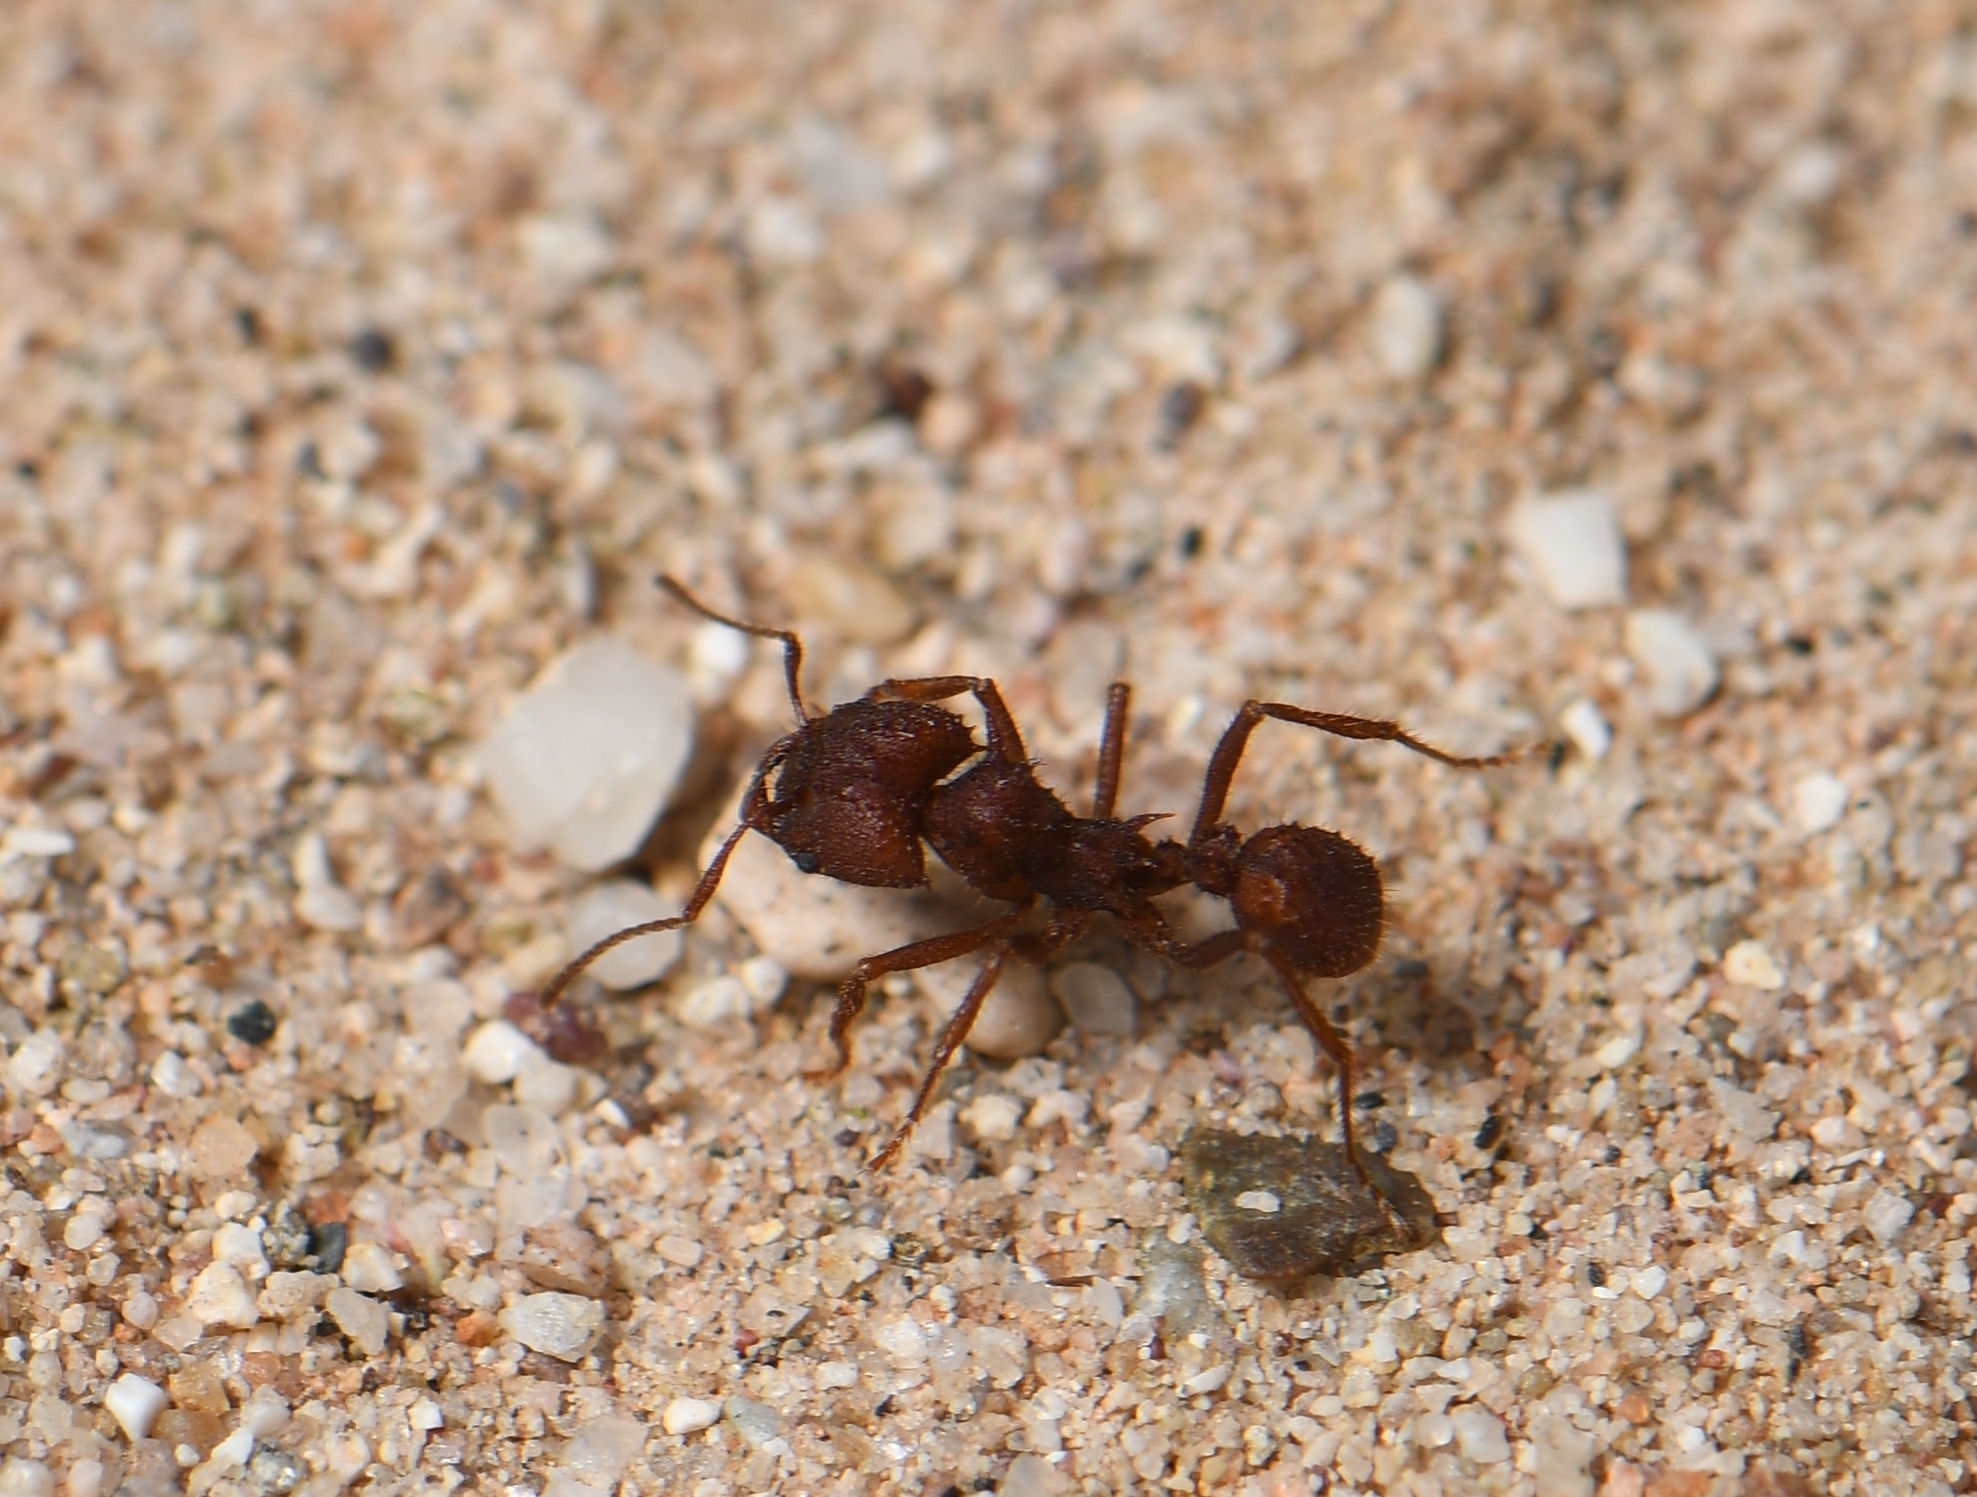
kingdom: Animalia
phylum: Arthropoda
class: Insecta
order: Hymenoptera
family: Formicidae
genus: Acromyrmex
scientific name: Acromyrmex versicolor
